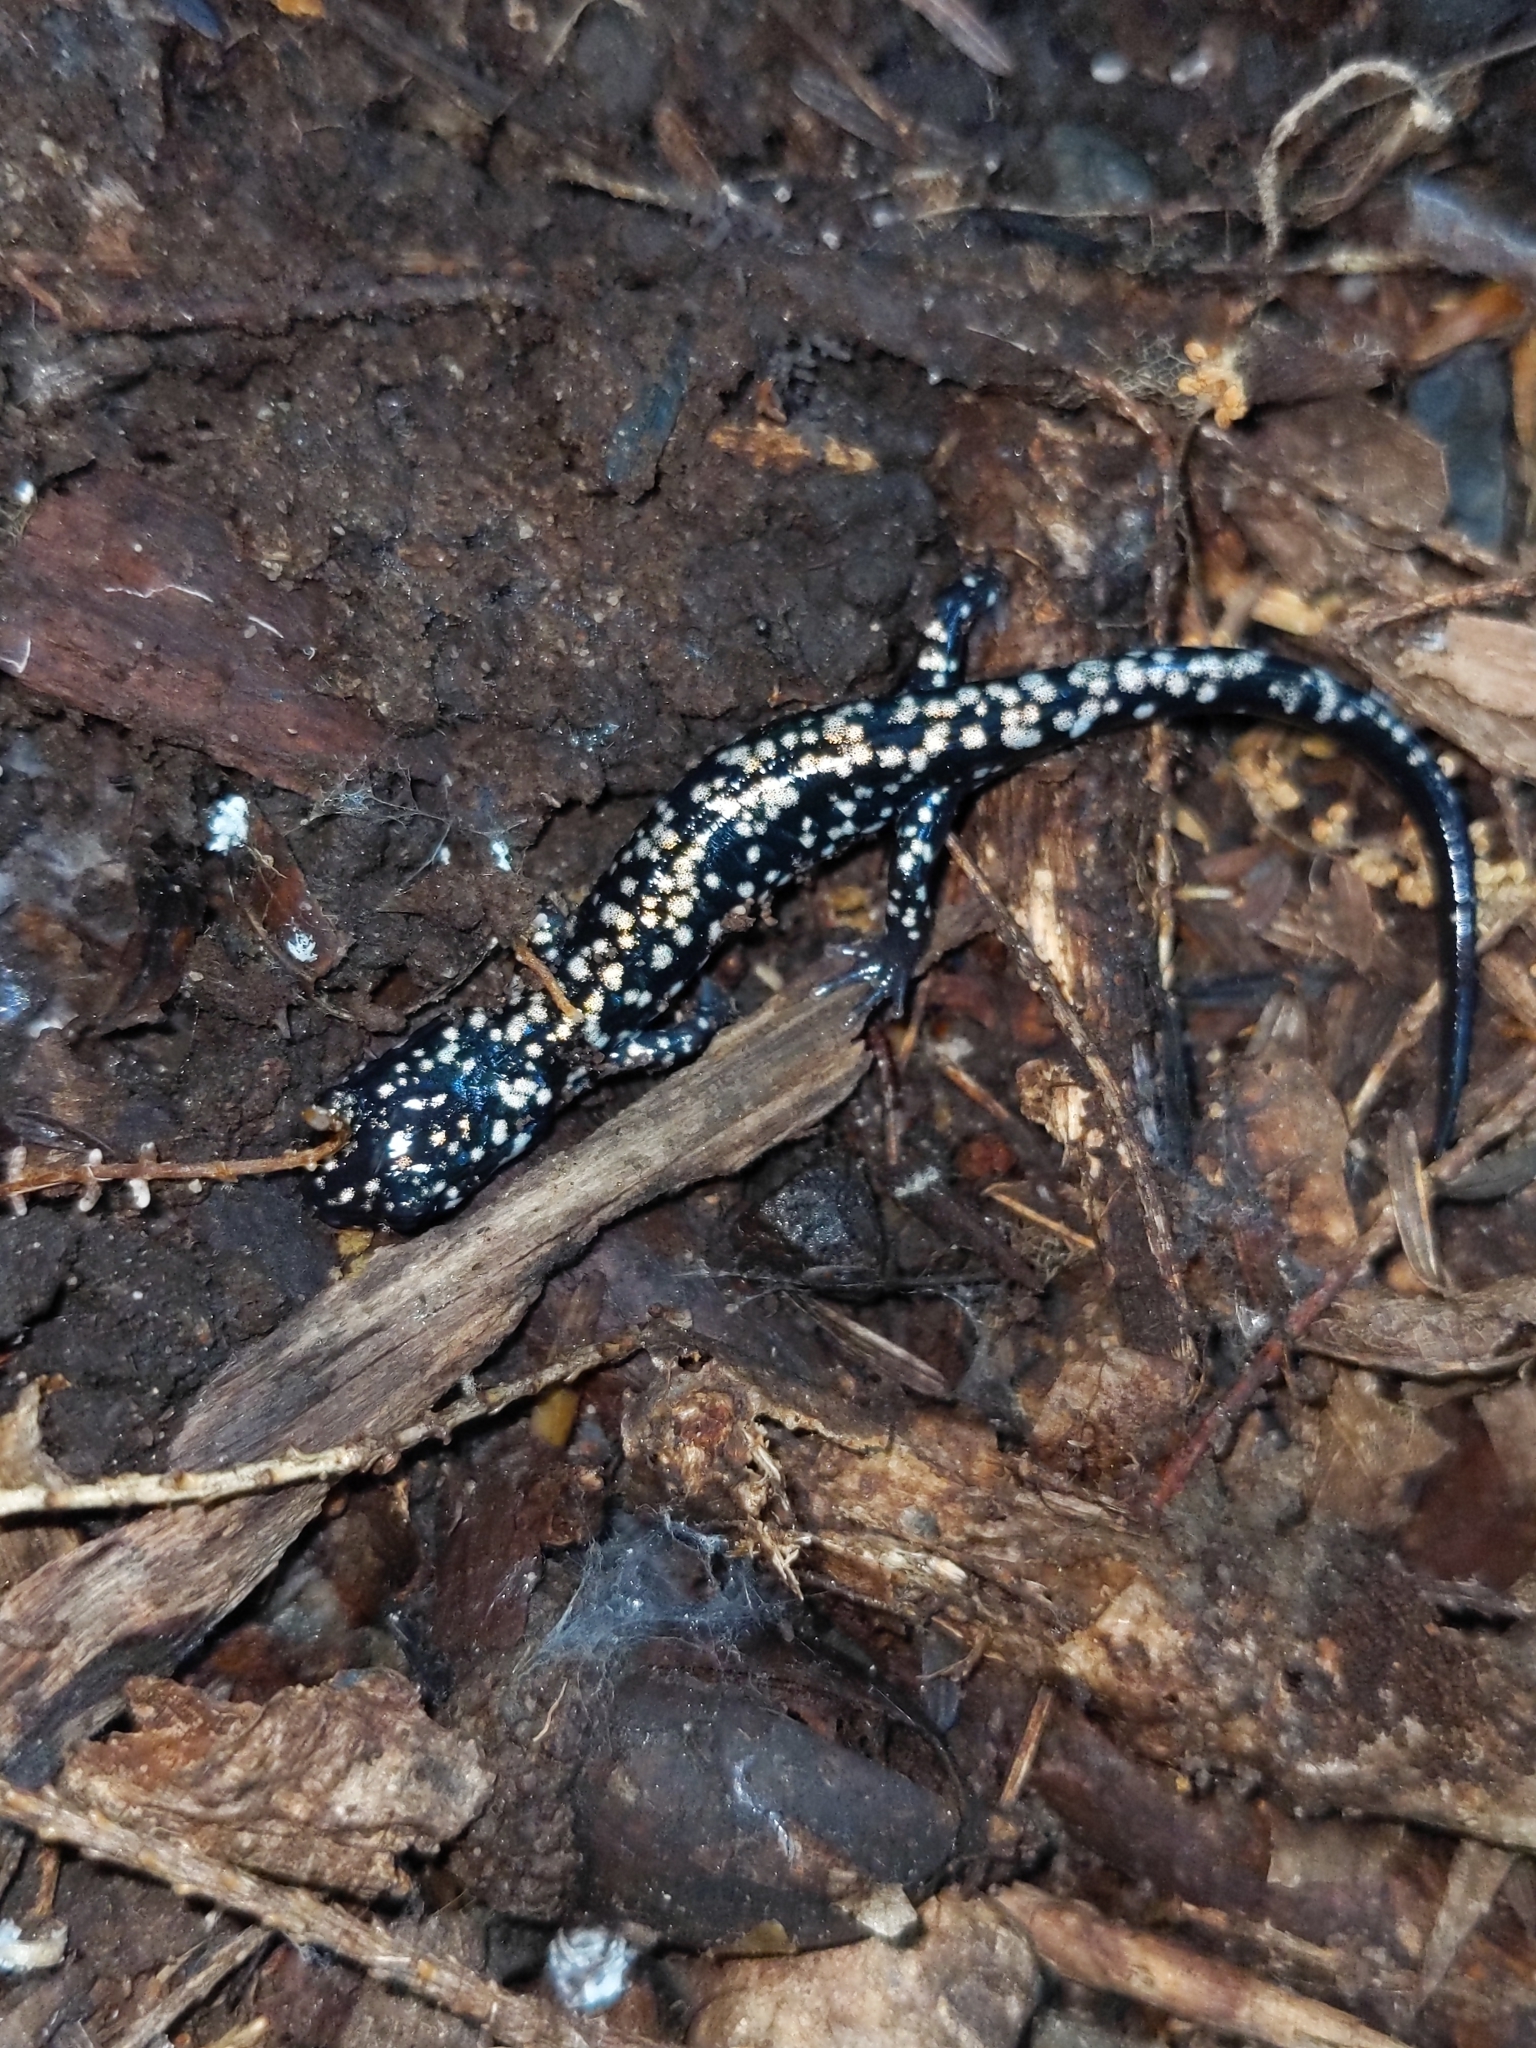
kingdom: Animalia
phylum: Chordata
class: Amphibia
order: Caudata
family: Plethodontidae
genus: Plethodon
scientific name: Plethodon glutinosus
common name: Northern slimy salamander
